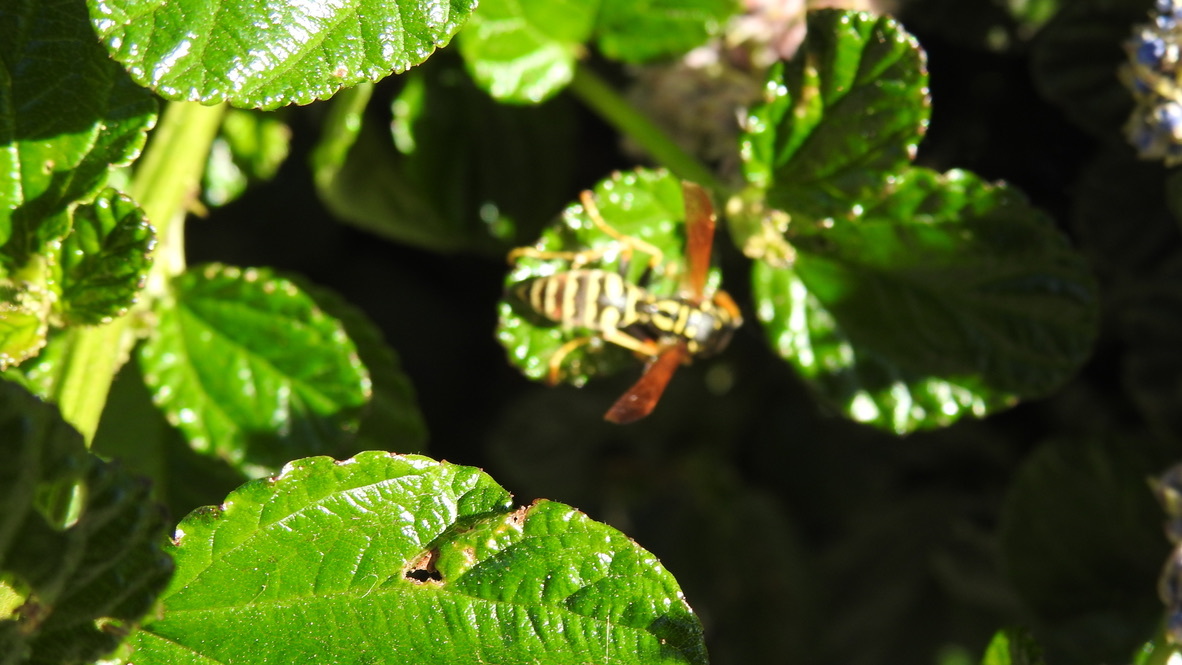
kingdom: Animalia
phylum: Arthropoda
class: Insecta
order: Hymenoptera
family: Eumenidae
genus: Polistes
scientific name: Polistes dominula
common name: Paper wasp
